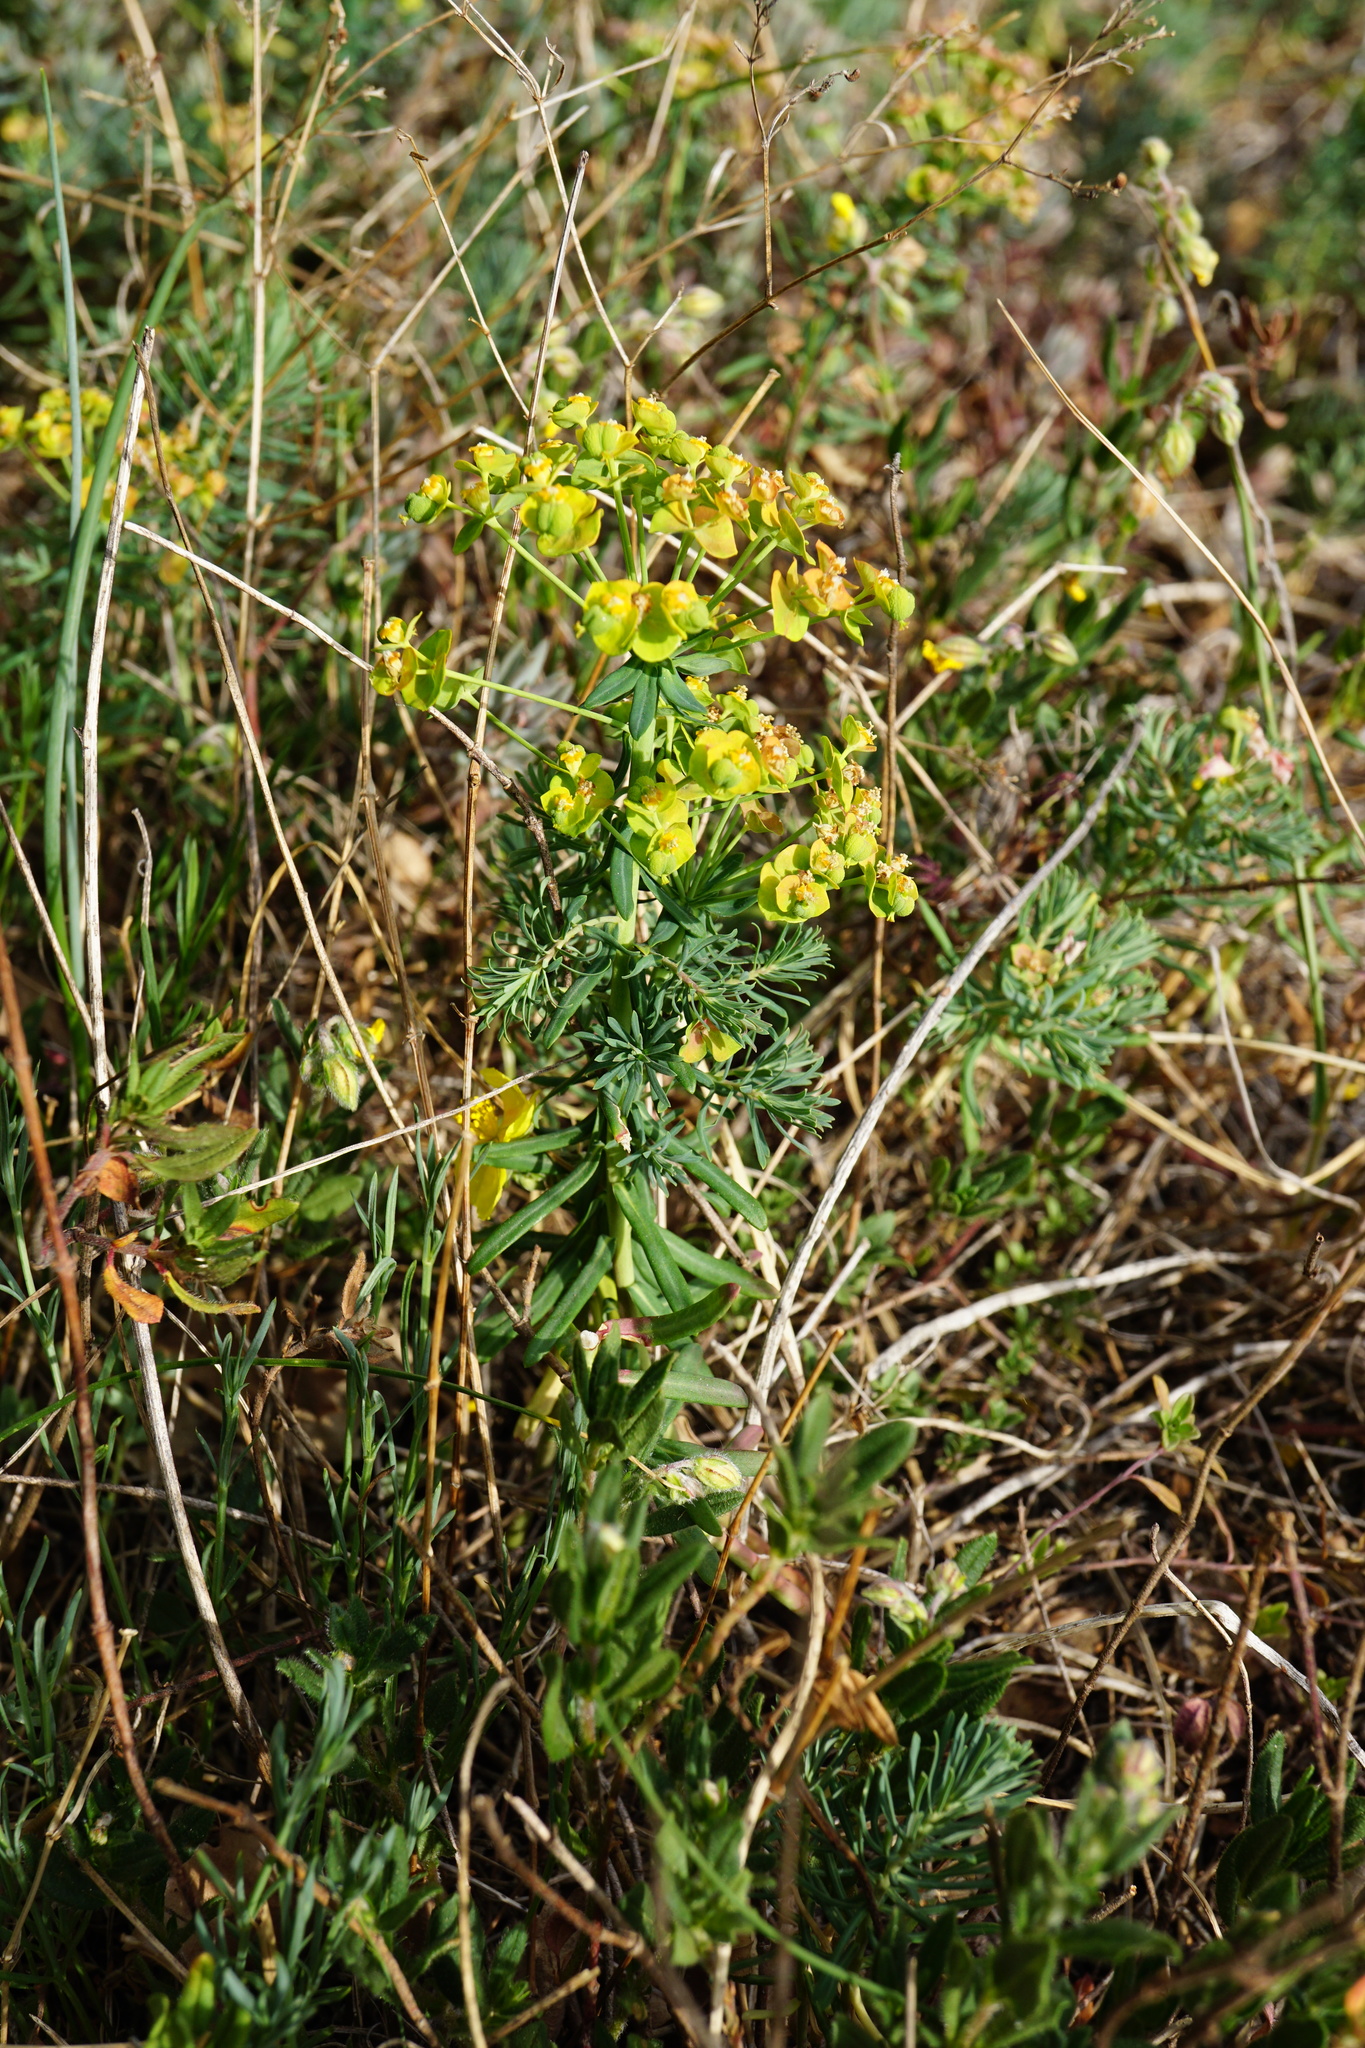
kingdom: Plantae
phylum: Tracheophyta
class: Magnoliopsida
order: Malpighiales
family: Euphorbiaceae
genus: Euphorbia
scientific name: Euphorbia cyparissias
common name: Cypress spurge
